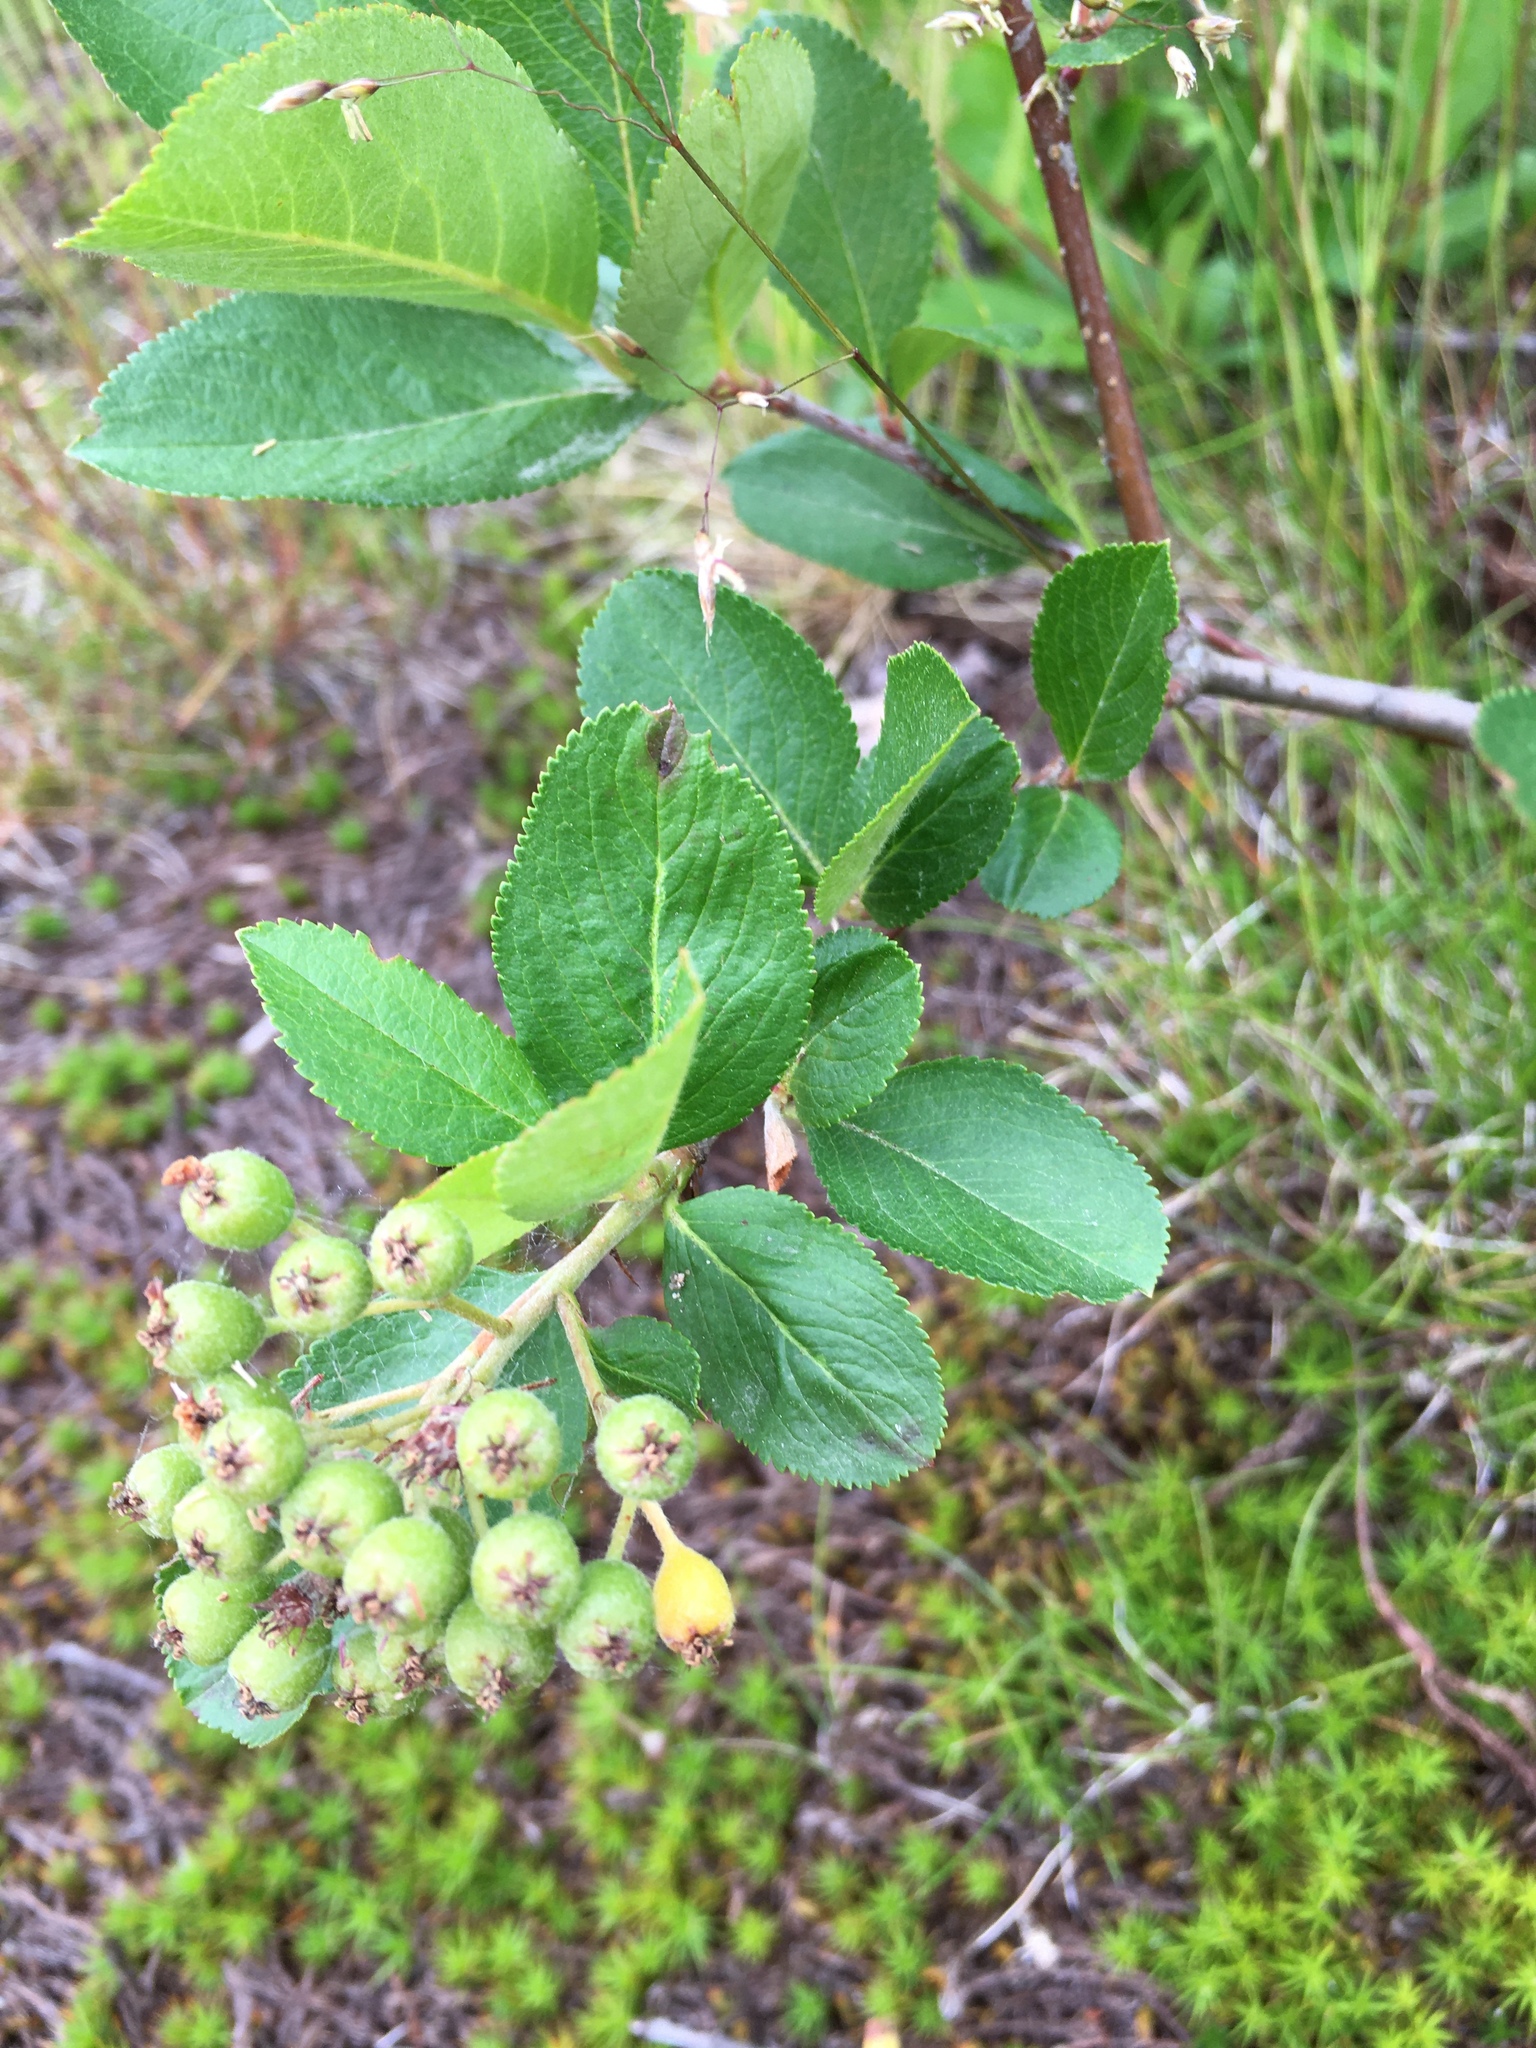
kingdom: Plantae
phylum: Tracheophyta
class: Magnoliopsida
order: Rosales
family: Rosaceae
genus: Sorbaronia
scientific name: Sorbaronia arsenii
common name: Arsène's mountain-ash
